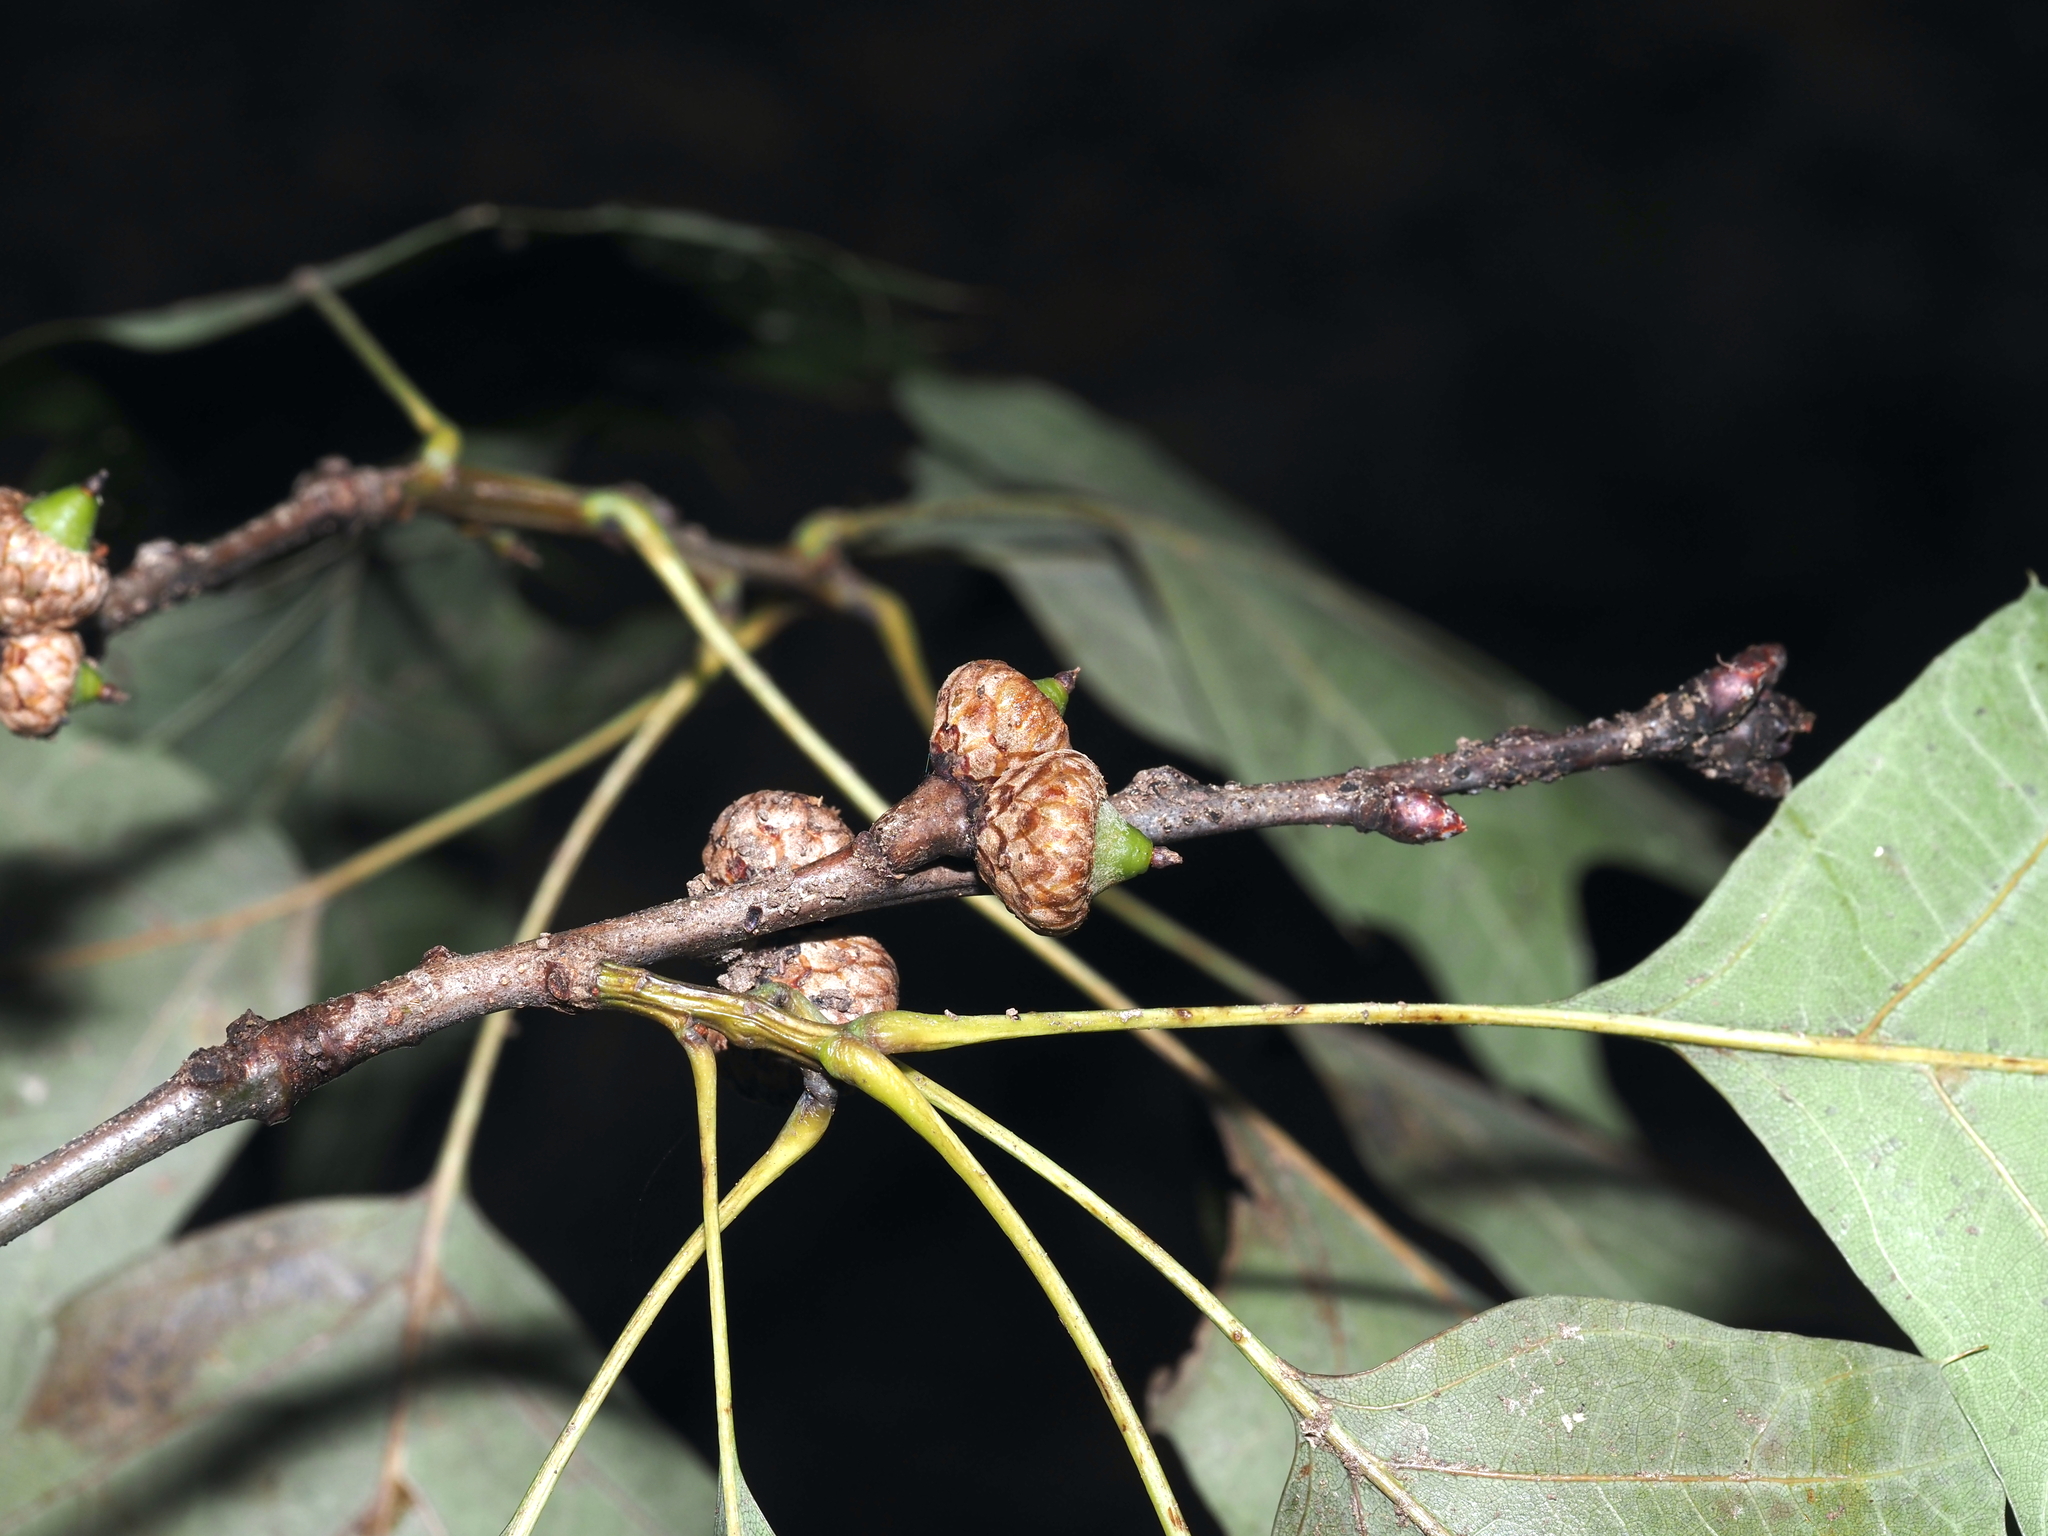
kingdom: Plantae
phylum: Tracheophyta
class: Magnoliopsida
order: Fagales
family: Fagaceae
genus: Quercus
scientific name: Quercus rubra
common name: Red oak
